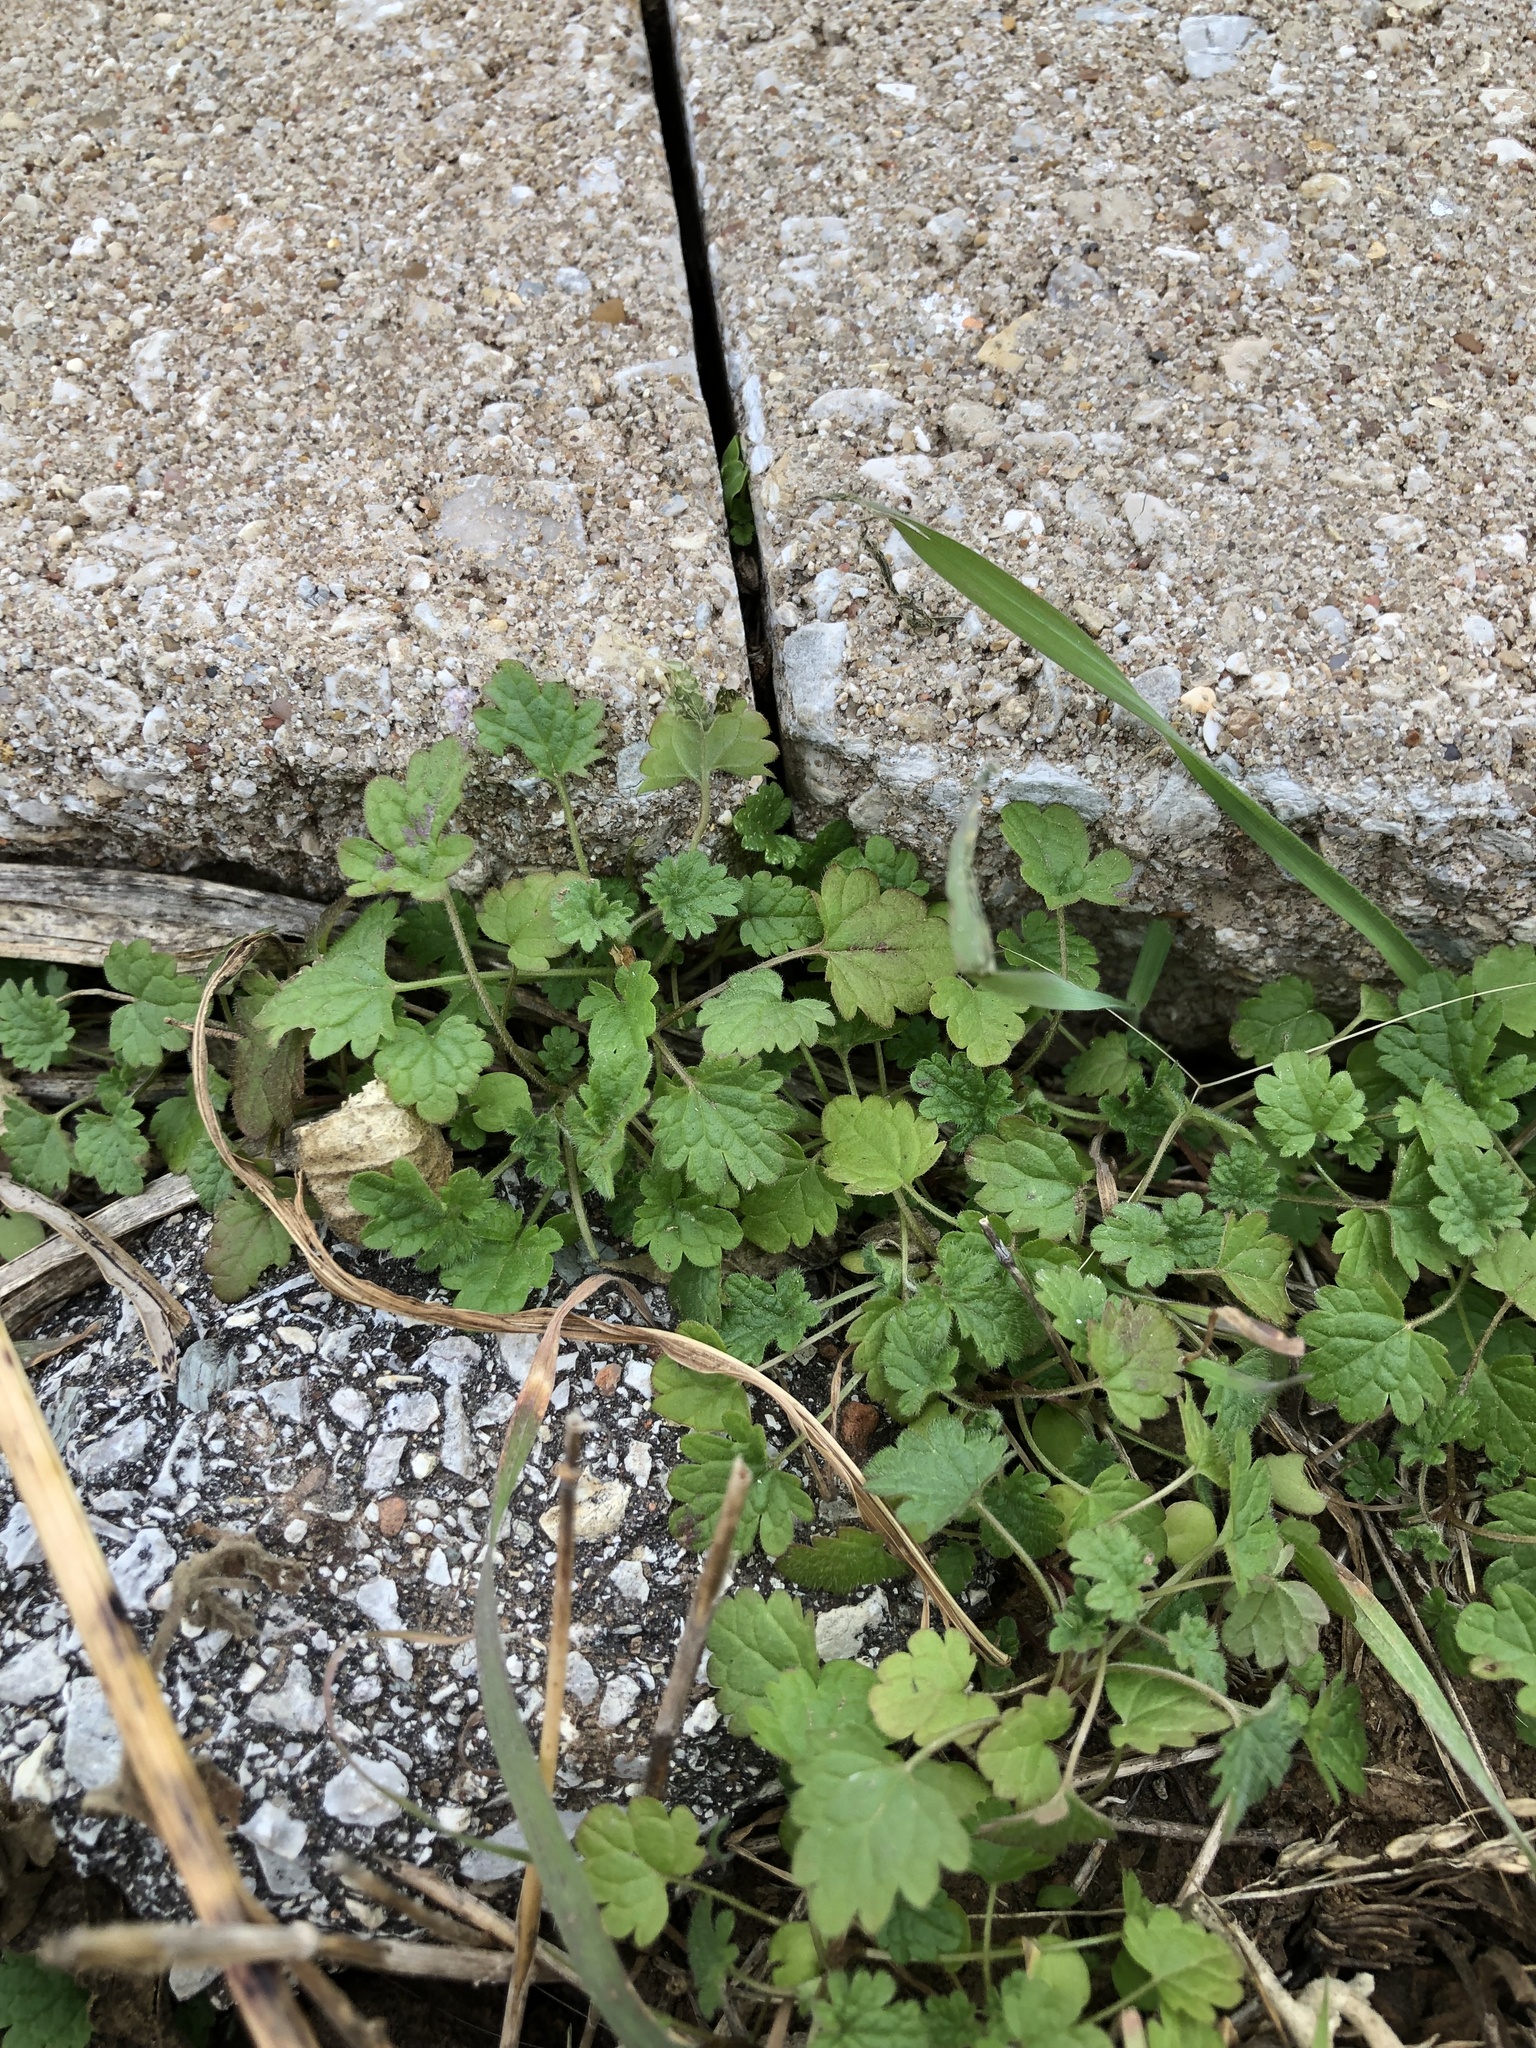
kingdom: Plantae
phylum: Tracheophyta
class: Magnoliopsida
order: Lamiales
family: Lamiaceae
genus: Lamium
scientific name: Lamium amplexicaule
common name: Henbit dead-nettle
